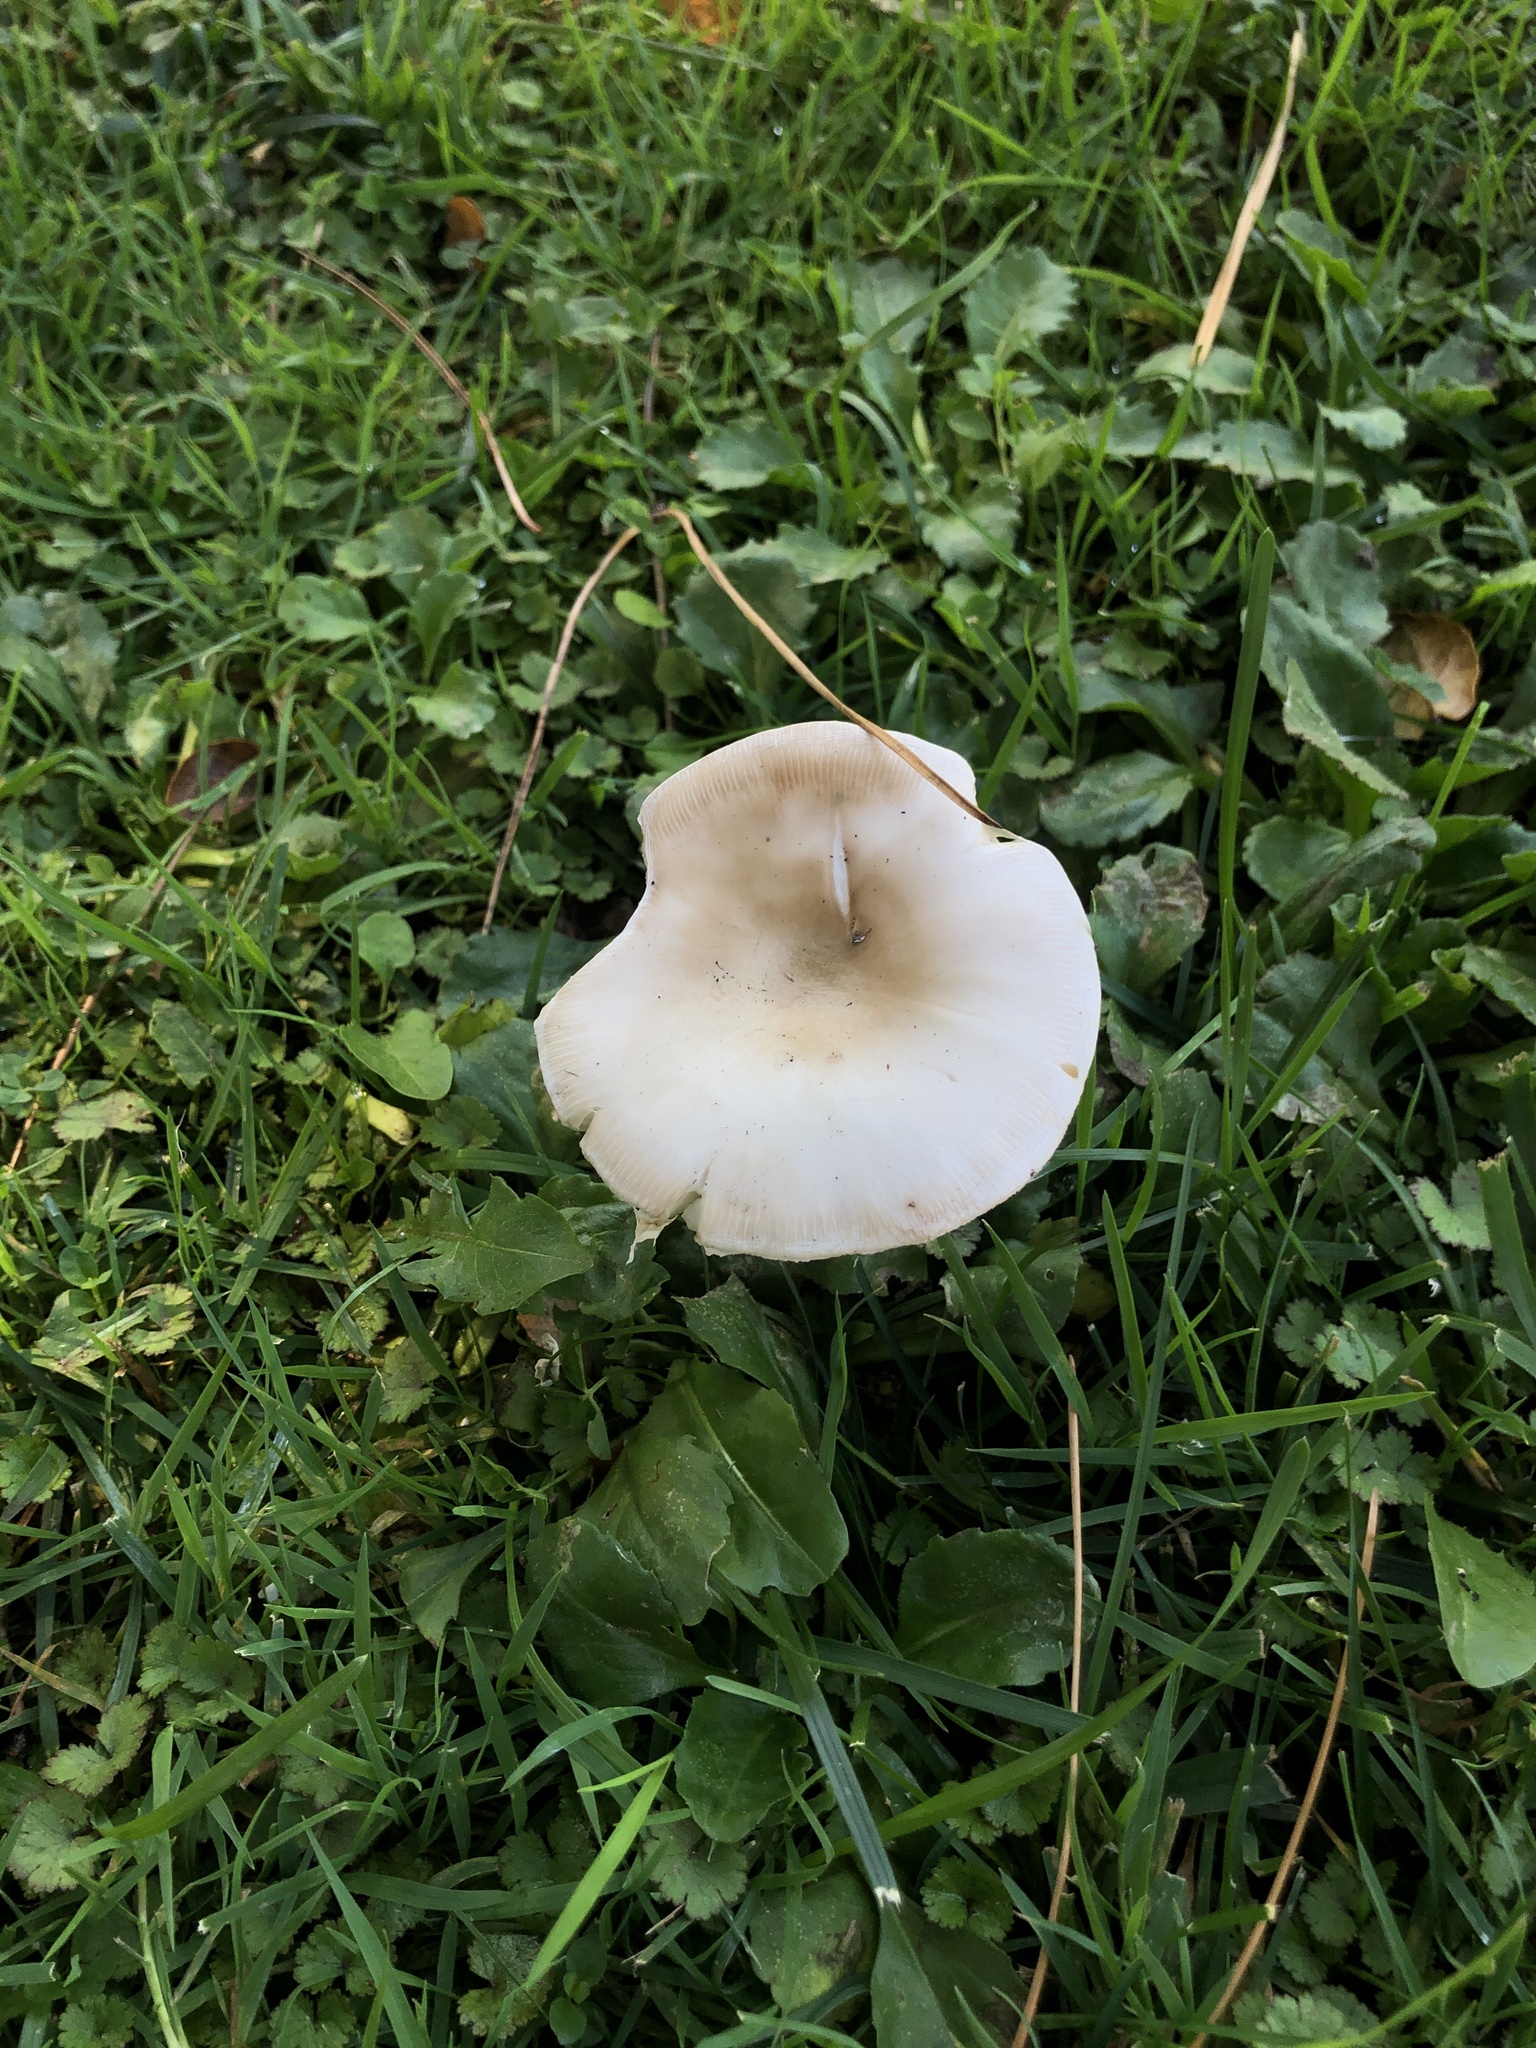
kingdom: Fungi
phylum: Basidiomycota
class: Agaricomycetes
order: Agaricales
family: Amanitaceae
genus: Amanita
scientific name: Amanita phalloides
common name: Death cap
